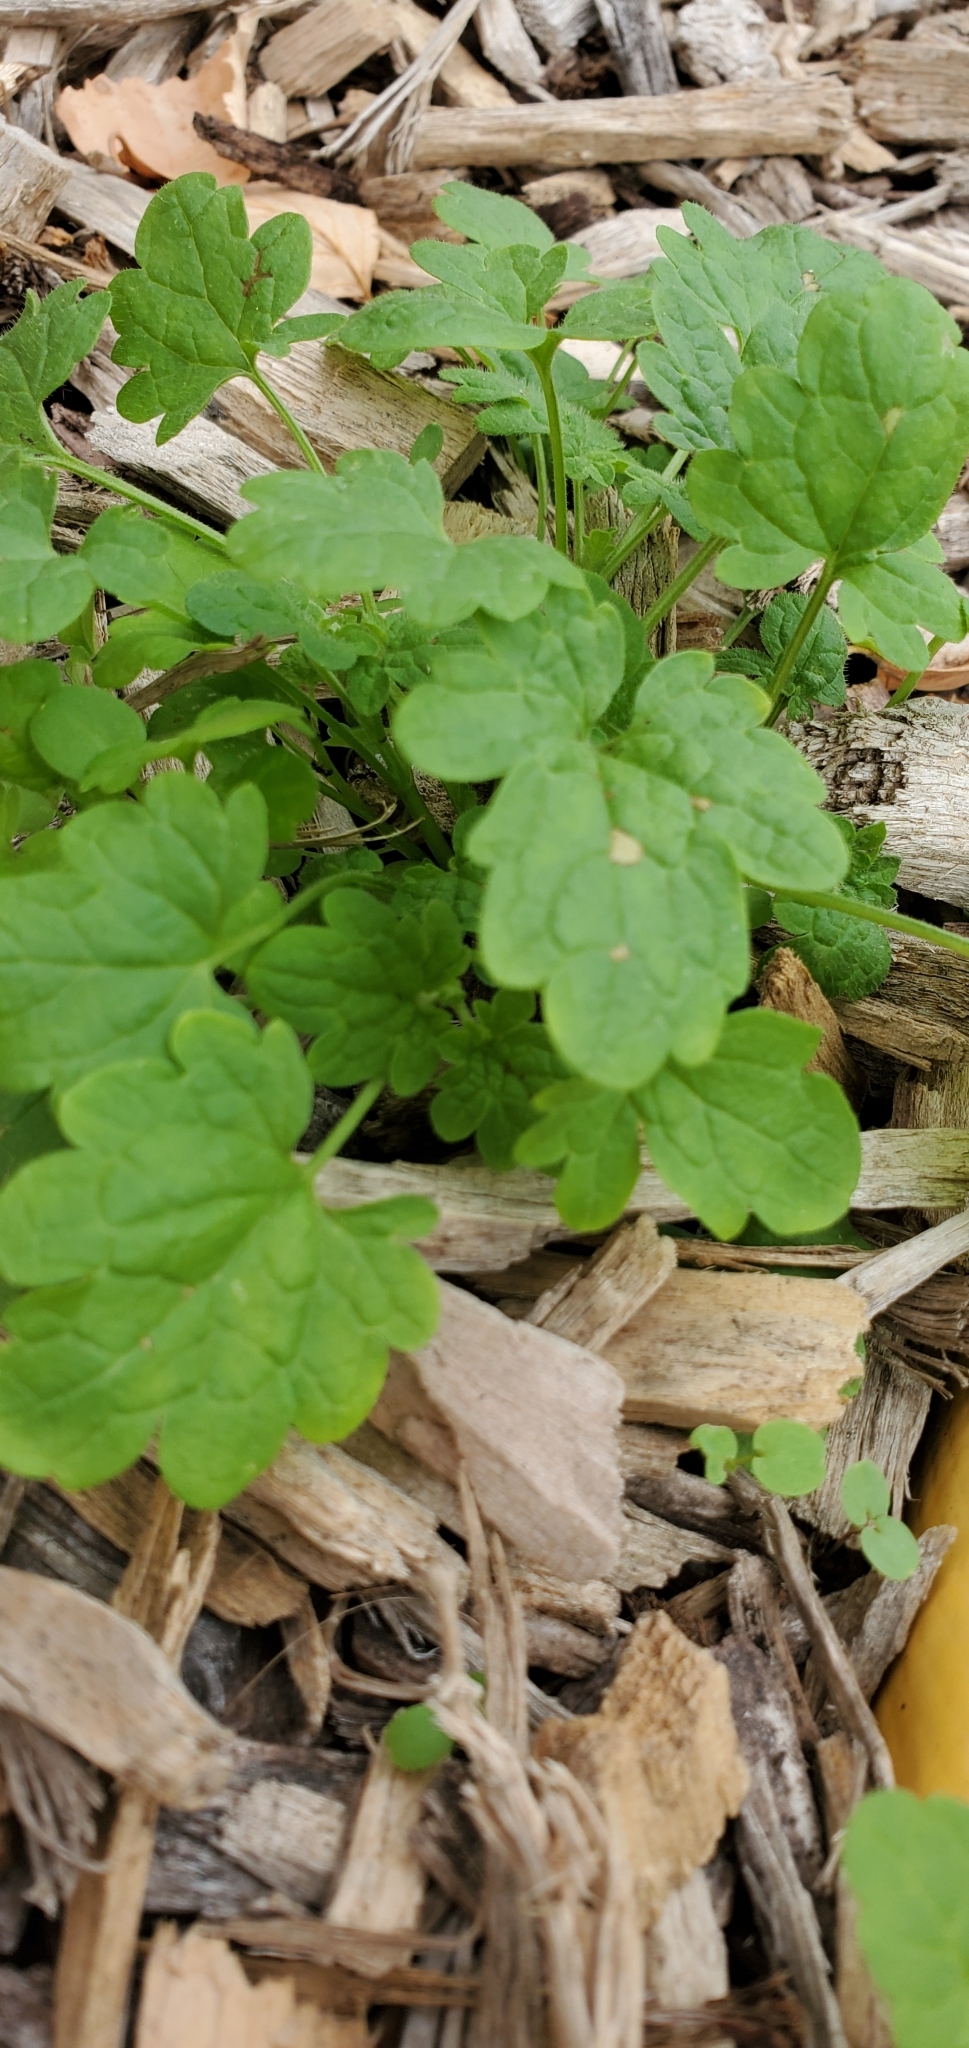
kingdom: Plantae
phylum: Tracheophyta
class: Magnoliopsida
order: Lamiales
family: Lamiaceae
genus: Lamium
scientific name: Lamium amplexicaule
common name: Henbit dead-nettle
